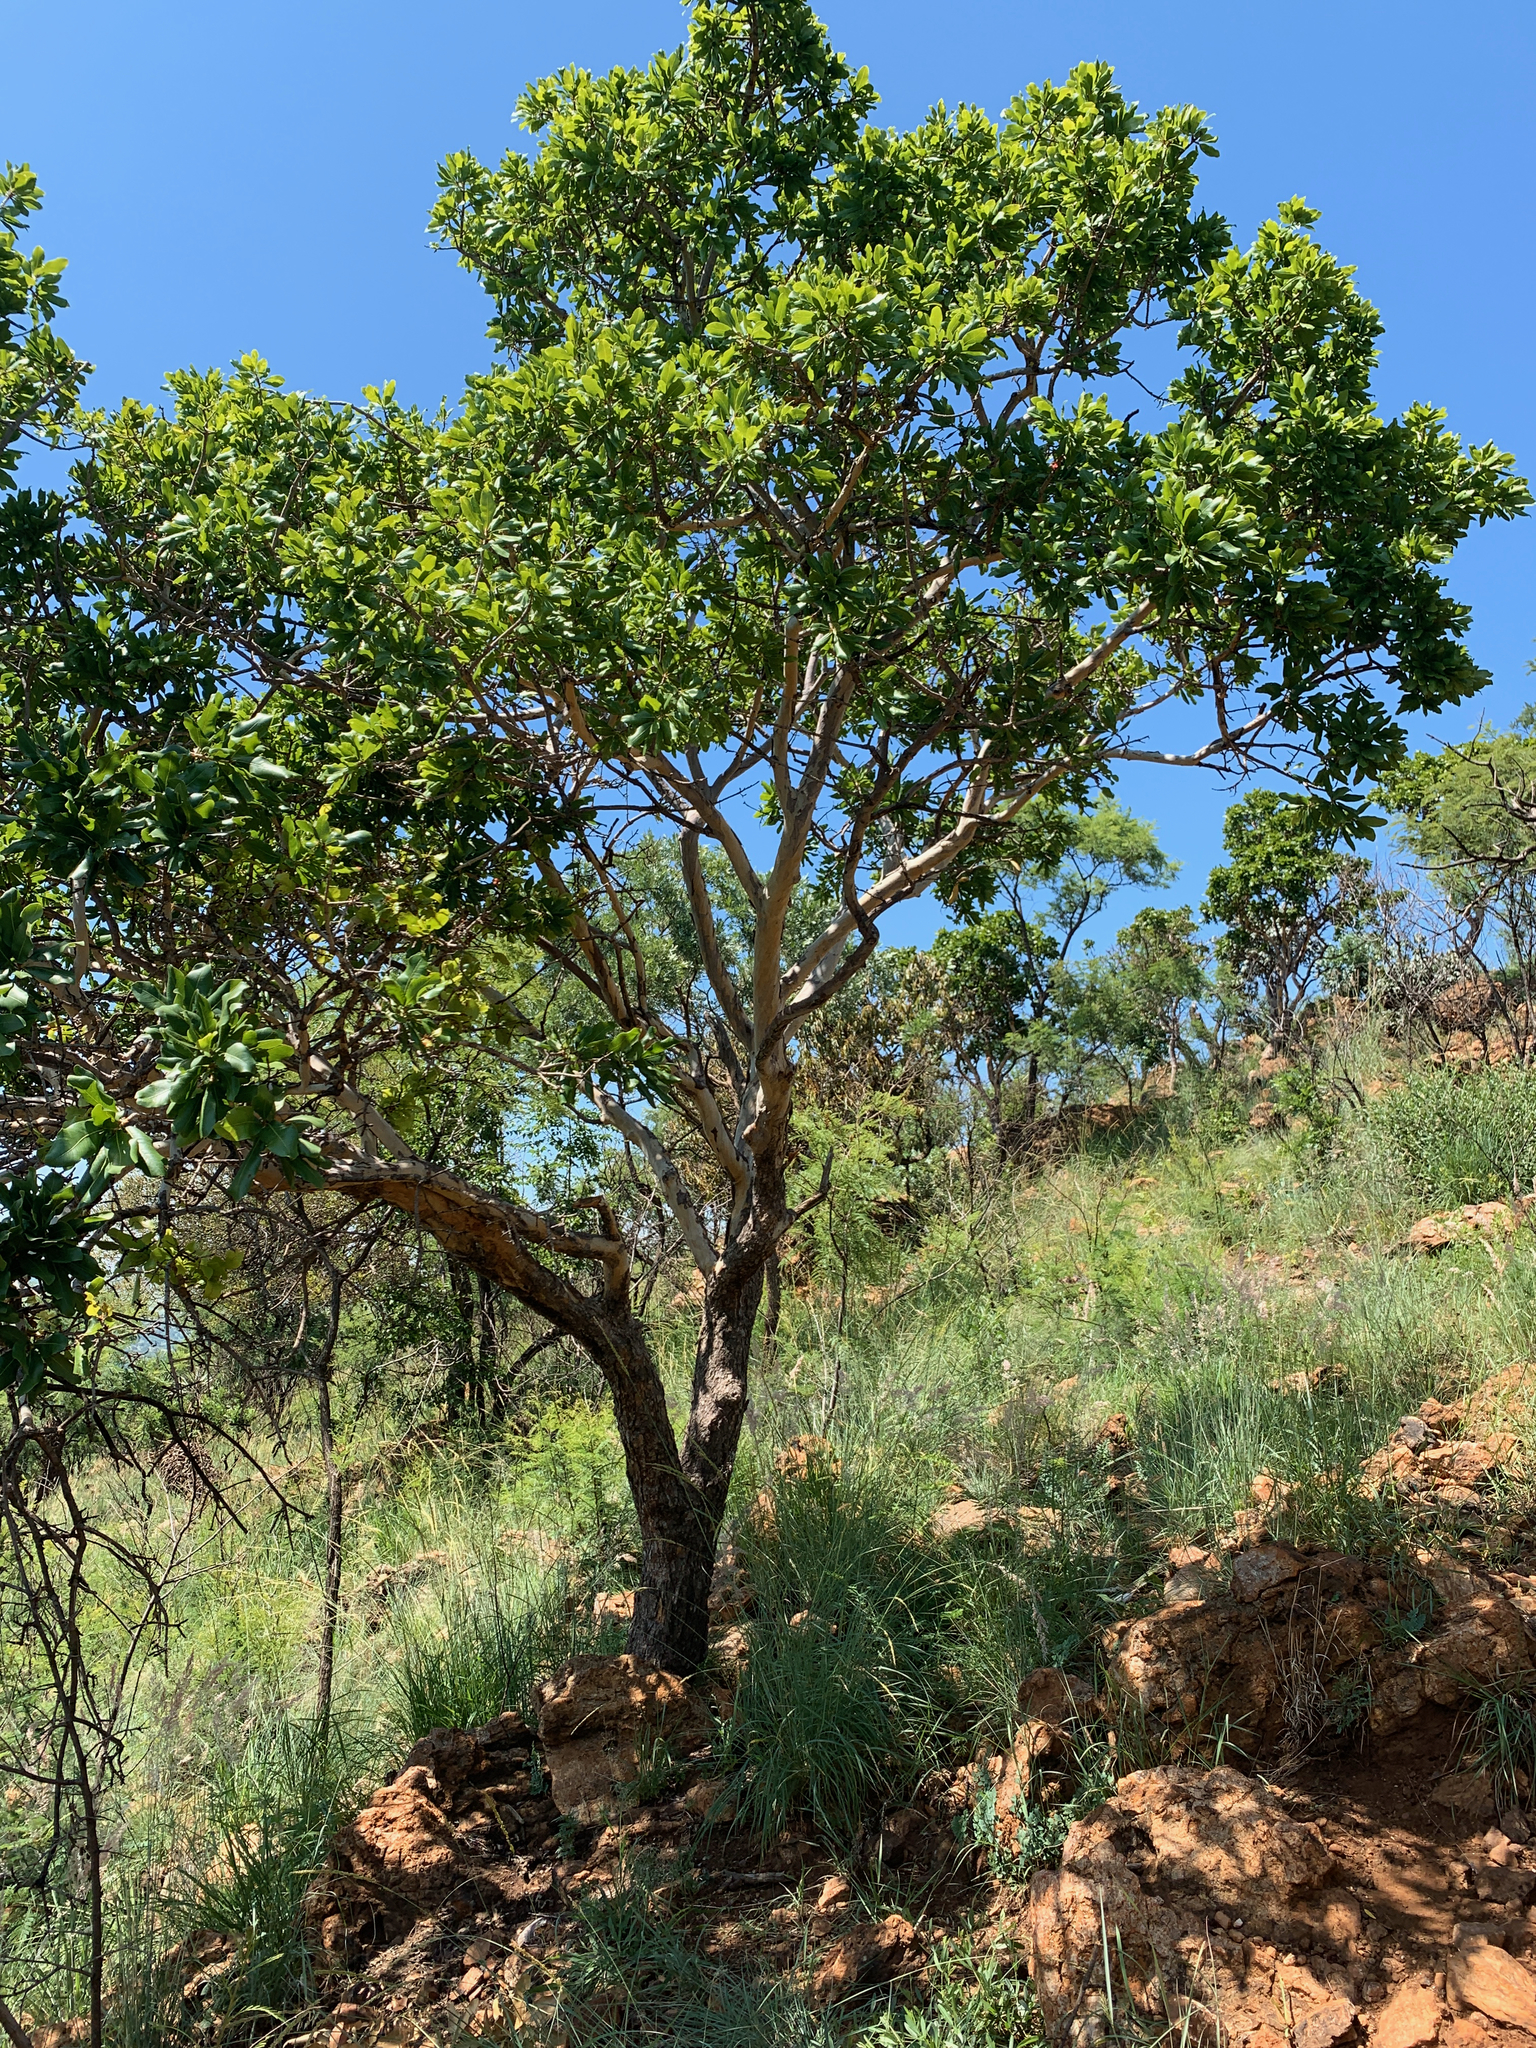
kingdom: Plantae
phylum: Tracheophyta
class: Magnoliopsida
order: Malpighiales
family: Ochnaceae
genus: Ochna
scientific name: Ochna pulchra
